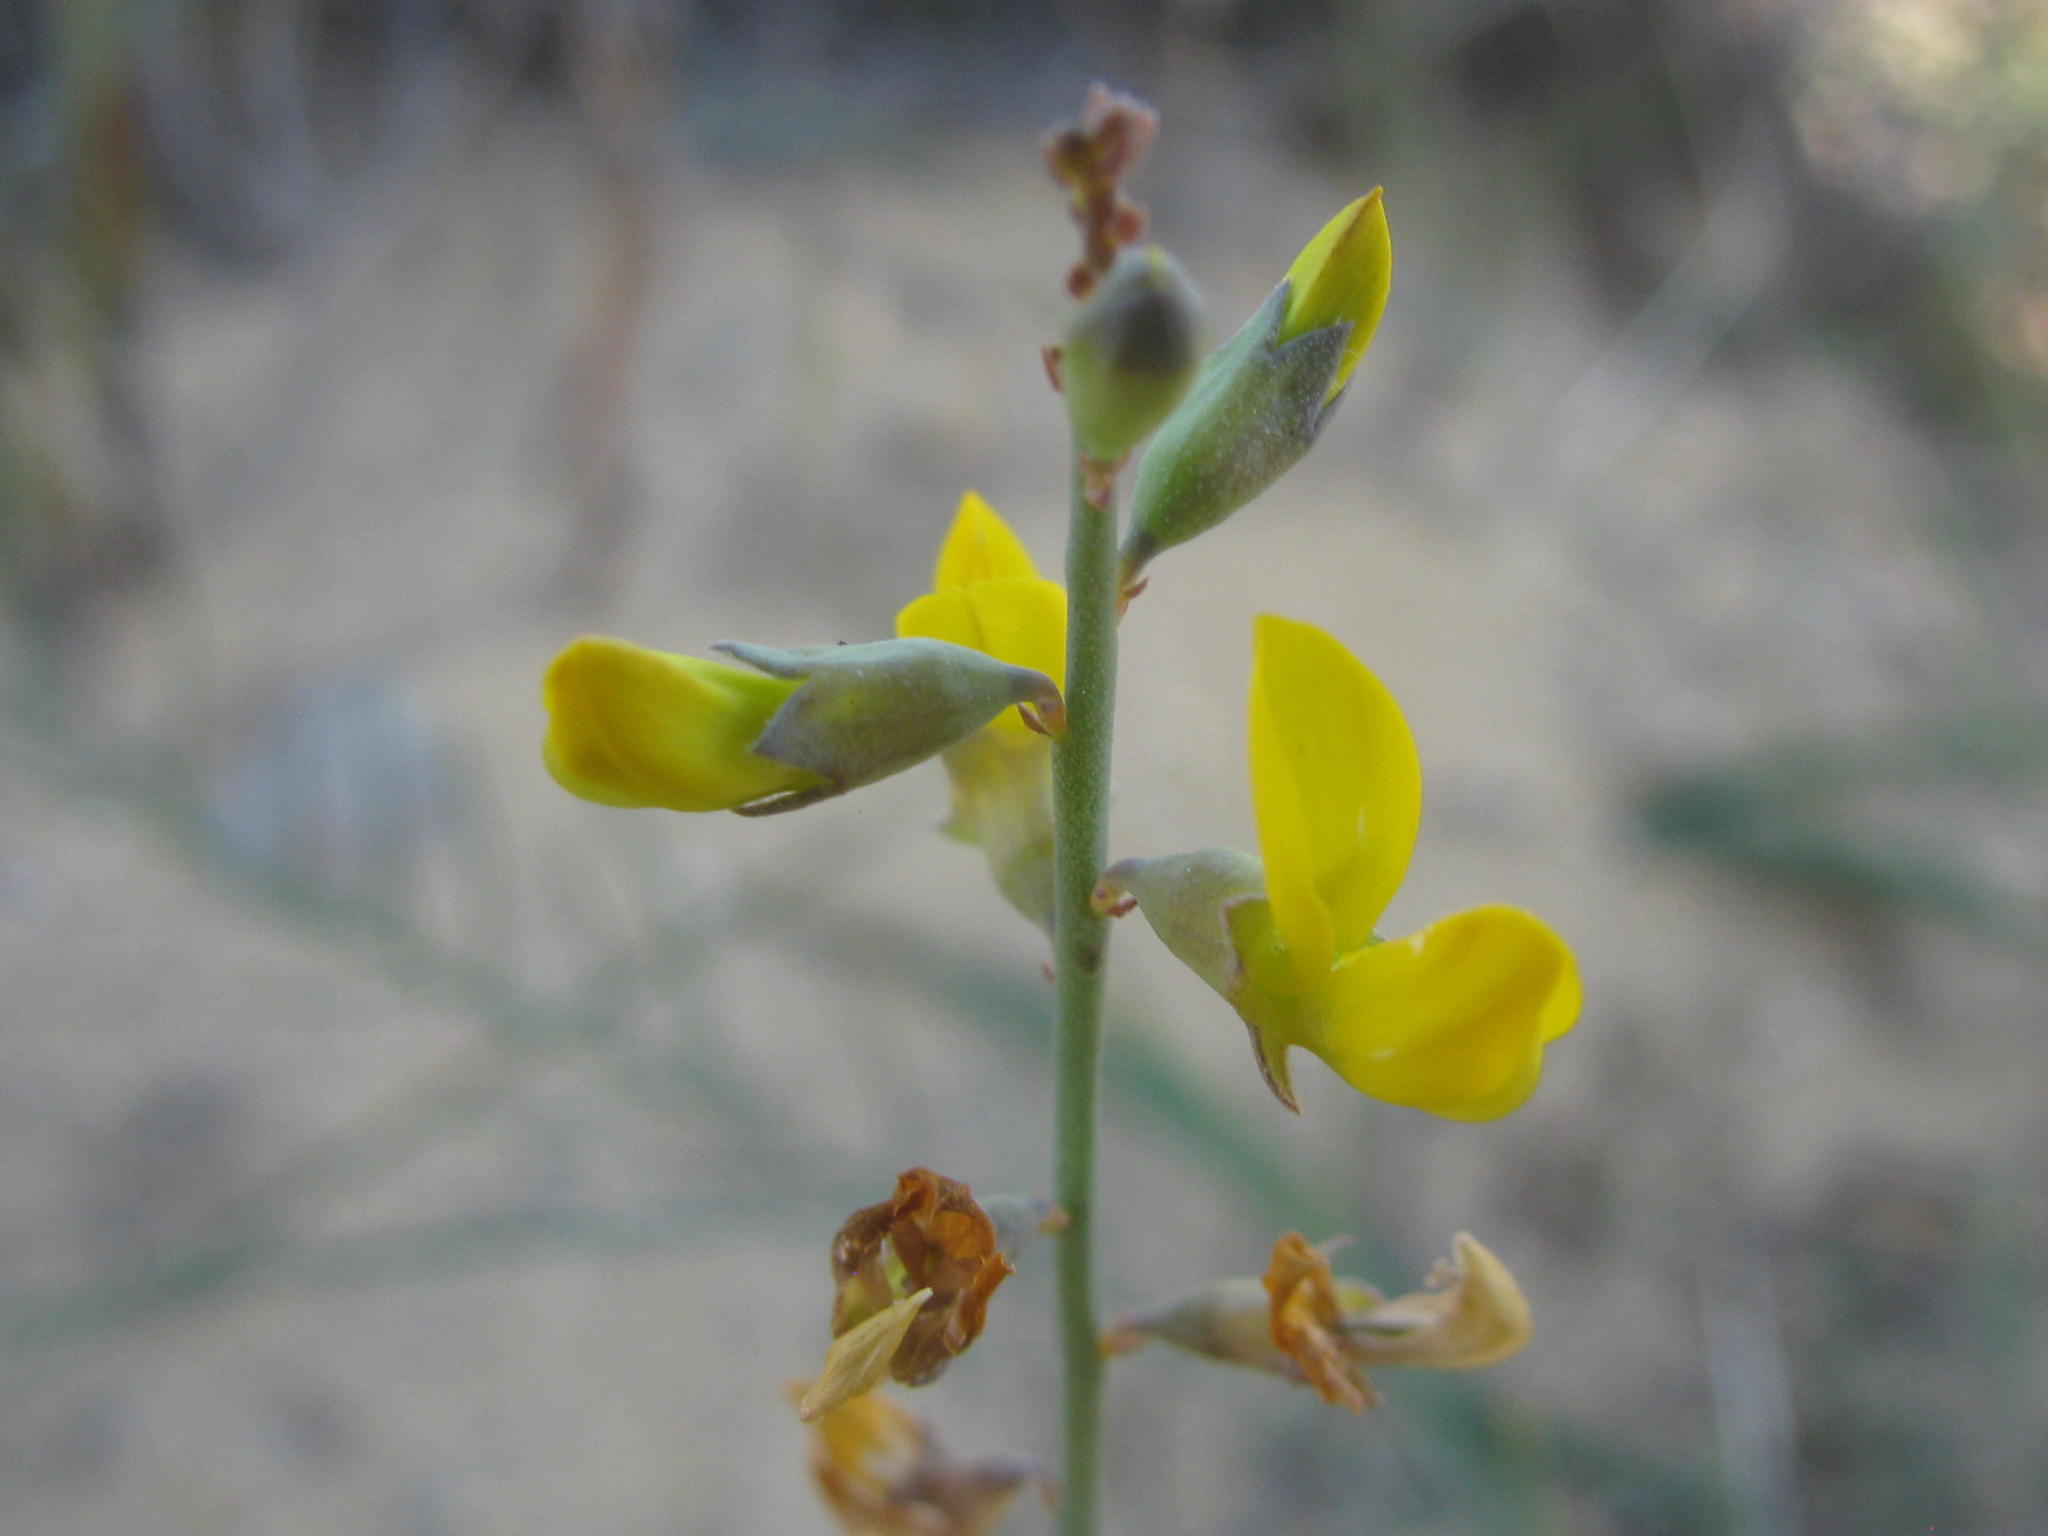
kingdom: Plantae
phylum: Tracheophyta
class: Magnoliopsida
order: Fabales
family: Fabaceae
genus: Lebeckia
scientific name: Lebeckia contaminata
